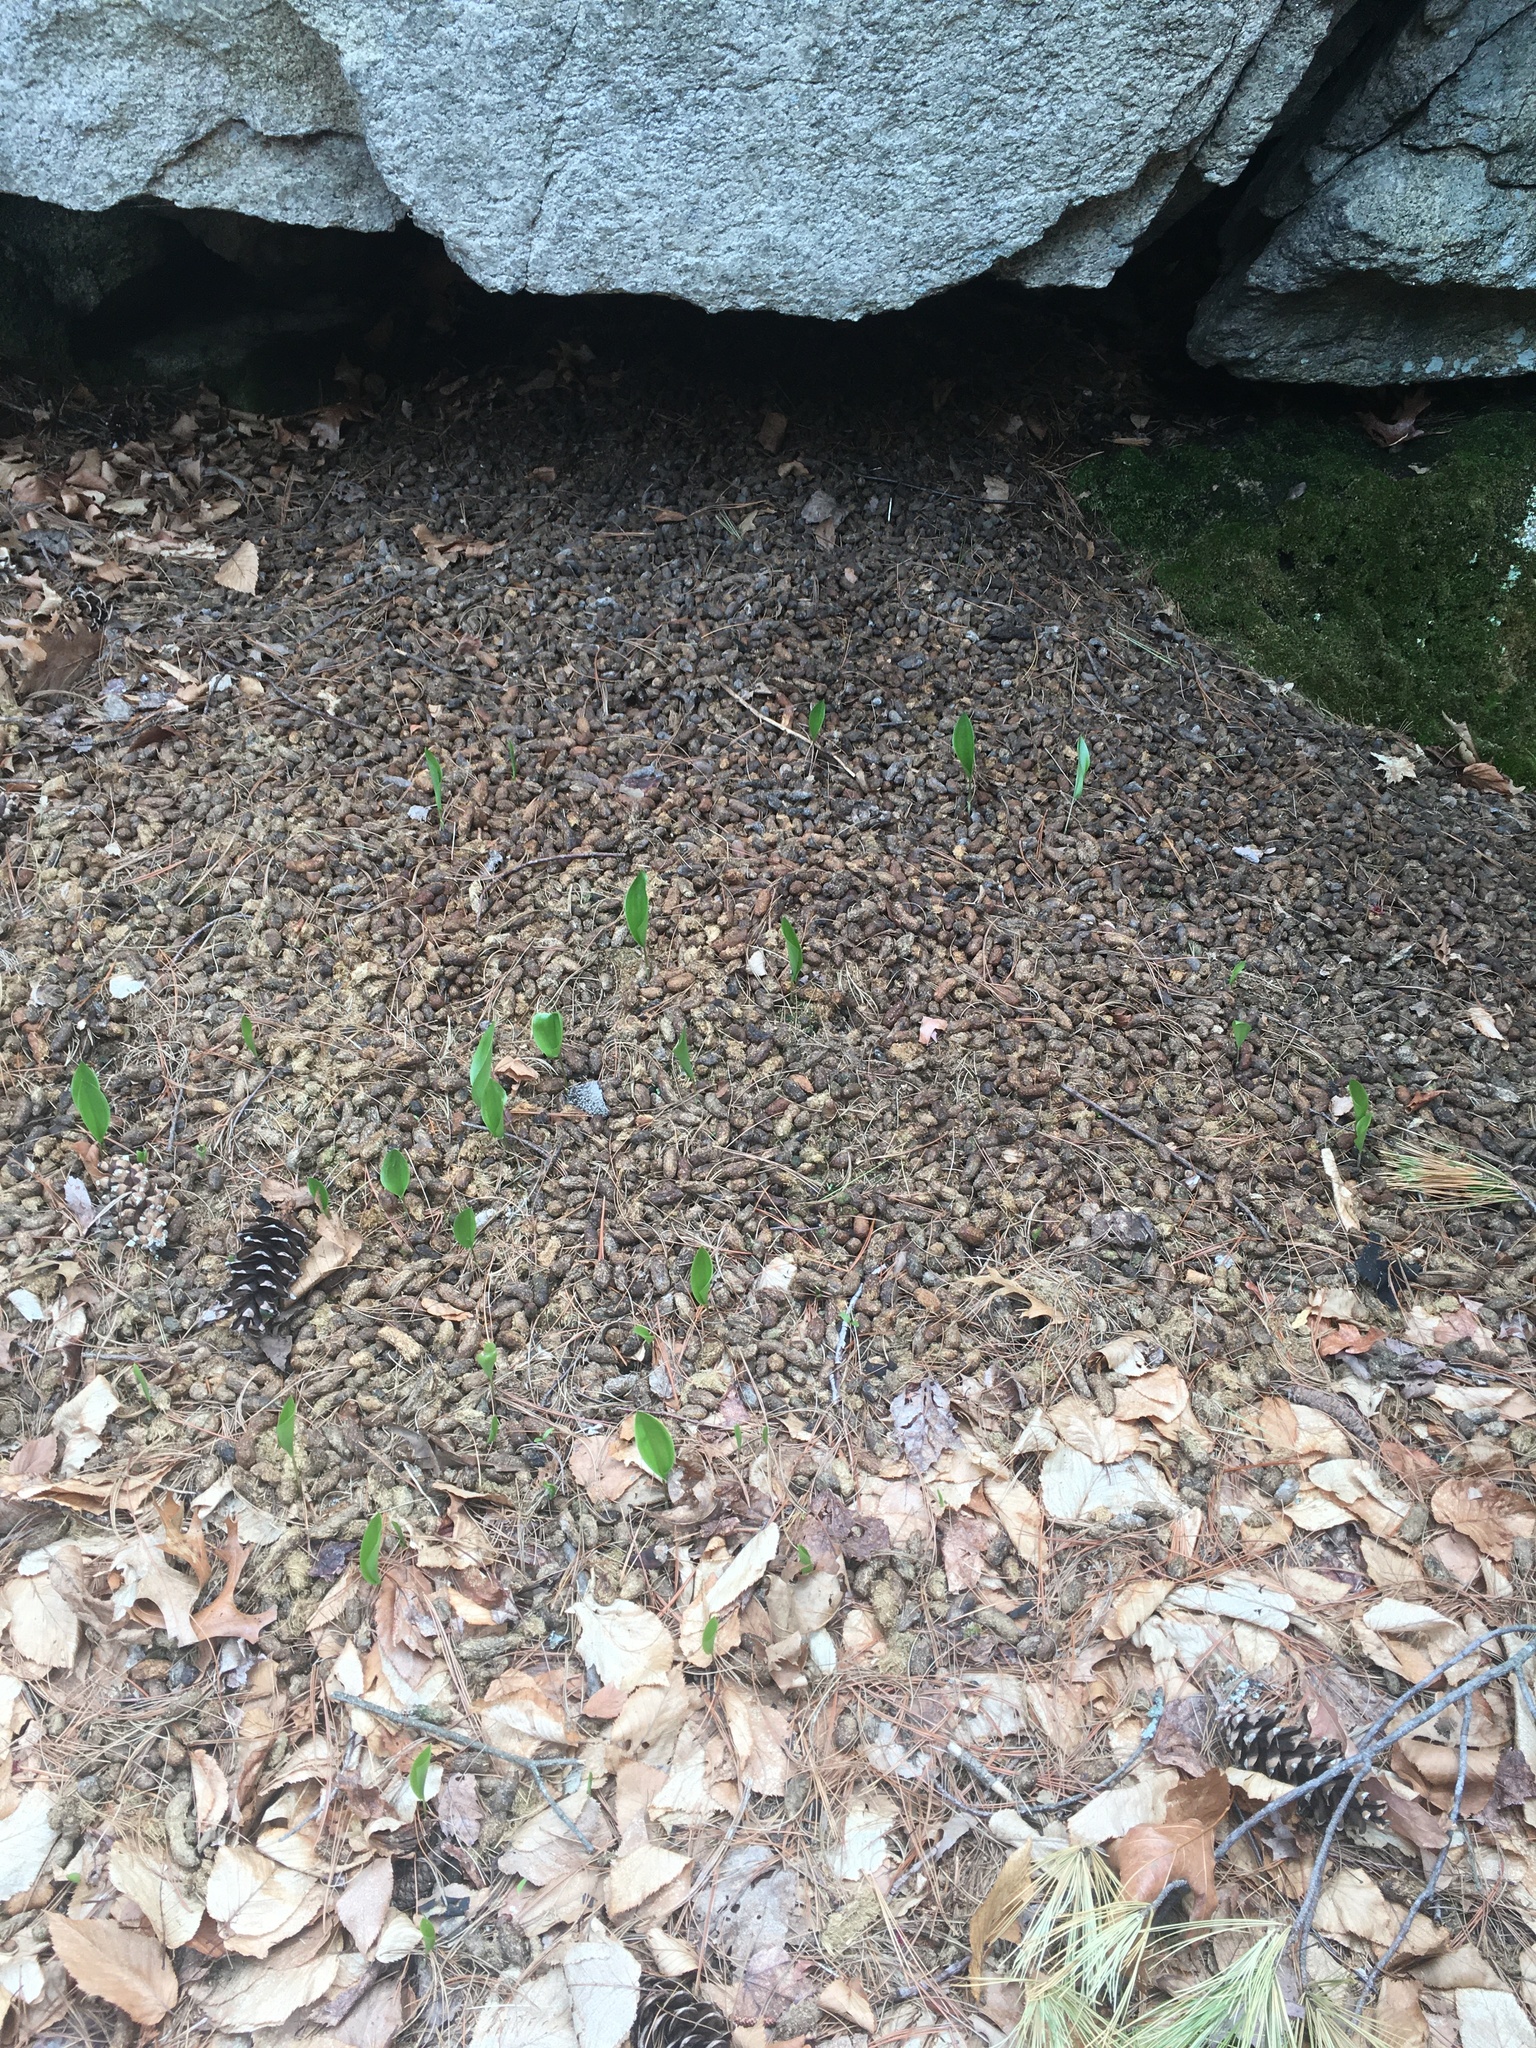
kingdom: Animalia
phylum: Chordata
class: Mammalia
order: Rodentia
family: Erethizontidae
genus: Erethizon
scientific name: Erethizon dorsatus
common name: North american porcupine
